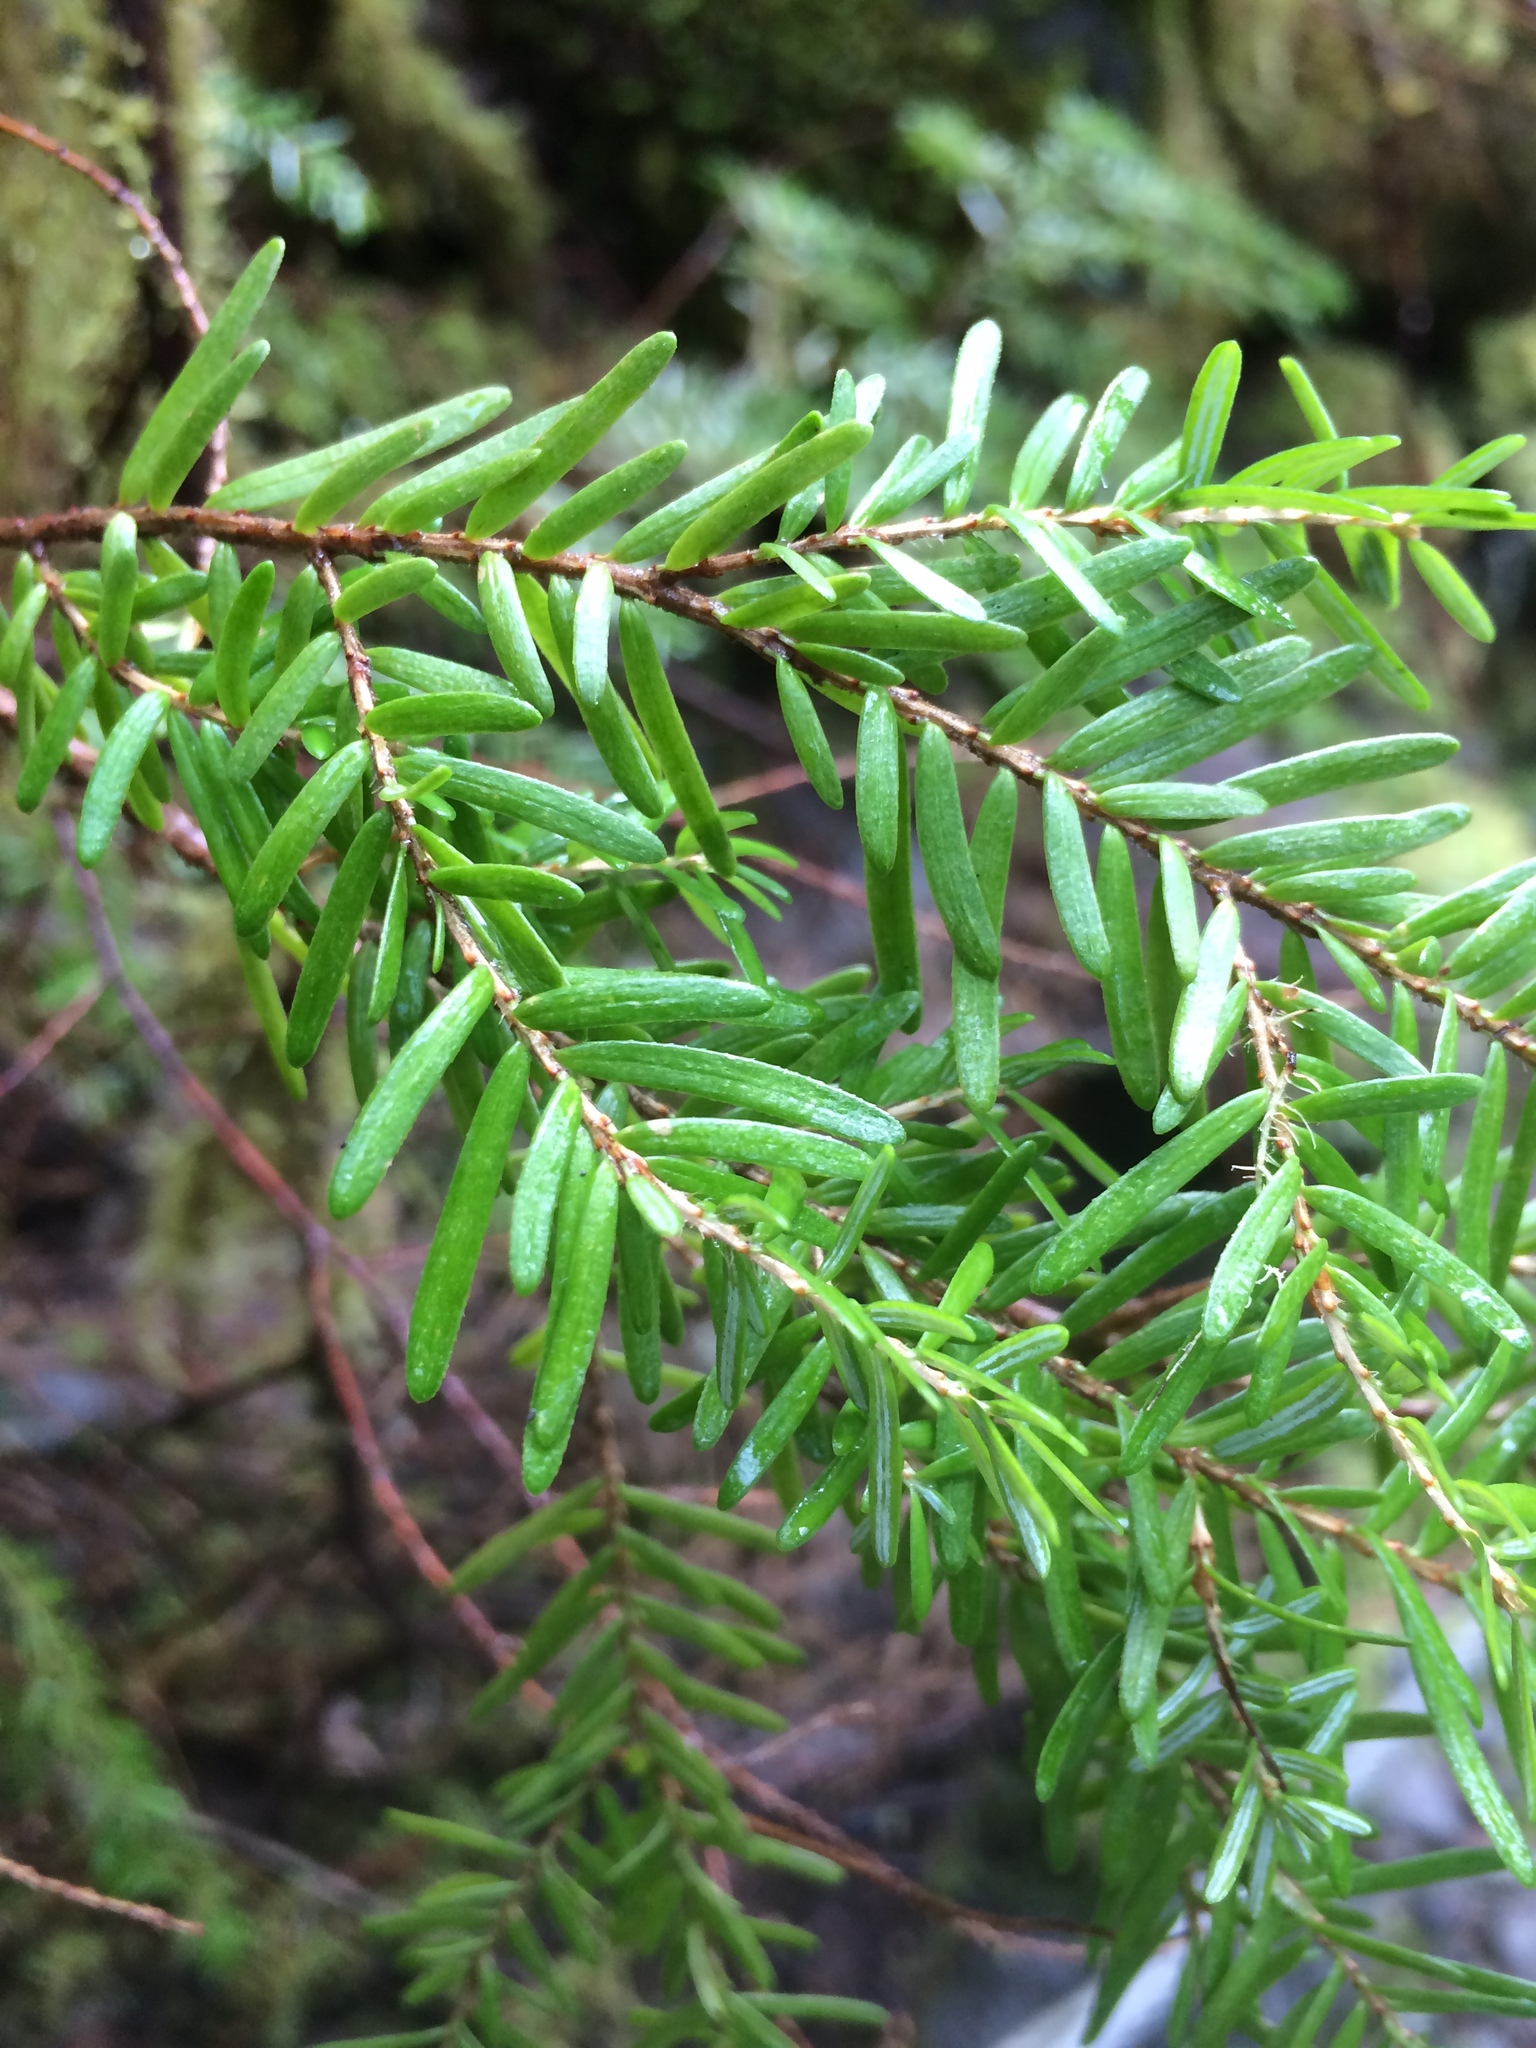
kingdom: Plantae
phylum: Tracheophyta
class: Pinopsida
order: Pinales
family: Pinaceae
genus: Tsuga
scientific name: Tsuga heterophylla
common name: Western hemlock
